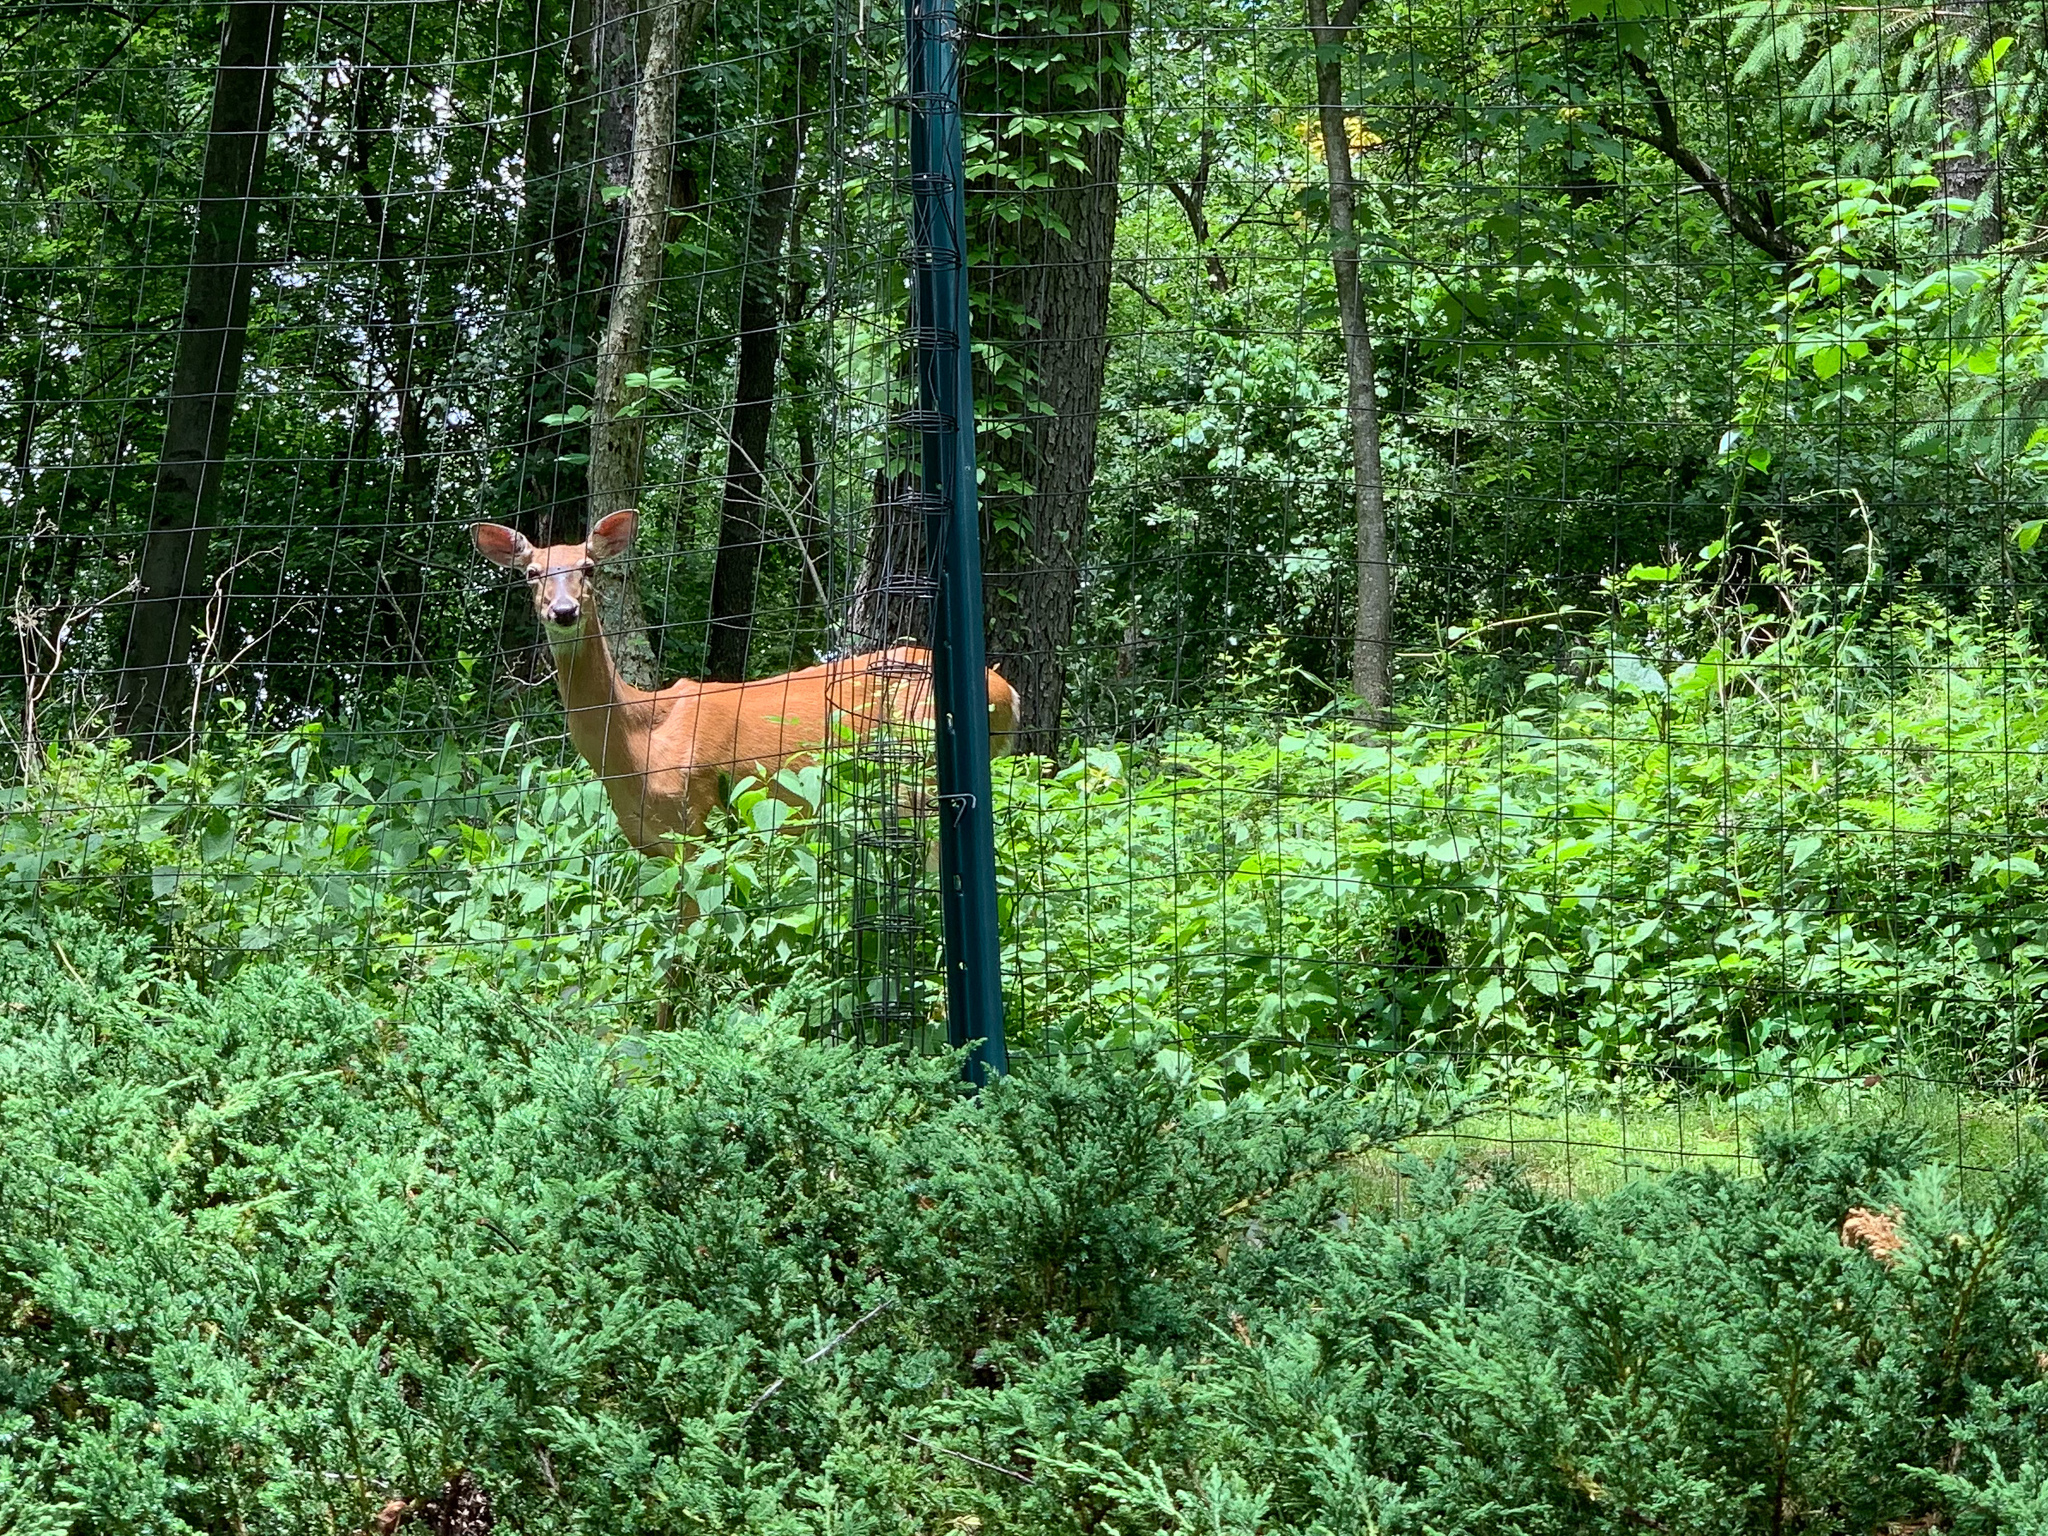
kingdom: Animalia
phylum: Chordata
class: Mammalia
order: Artiodactyla
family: Cervidae
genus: Odocoileus
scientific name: Odocoileus virginianus
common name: White-tailed deer
